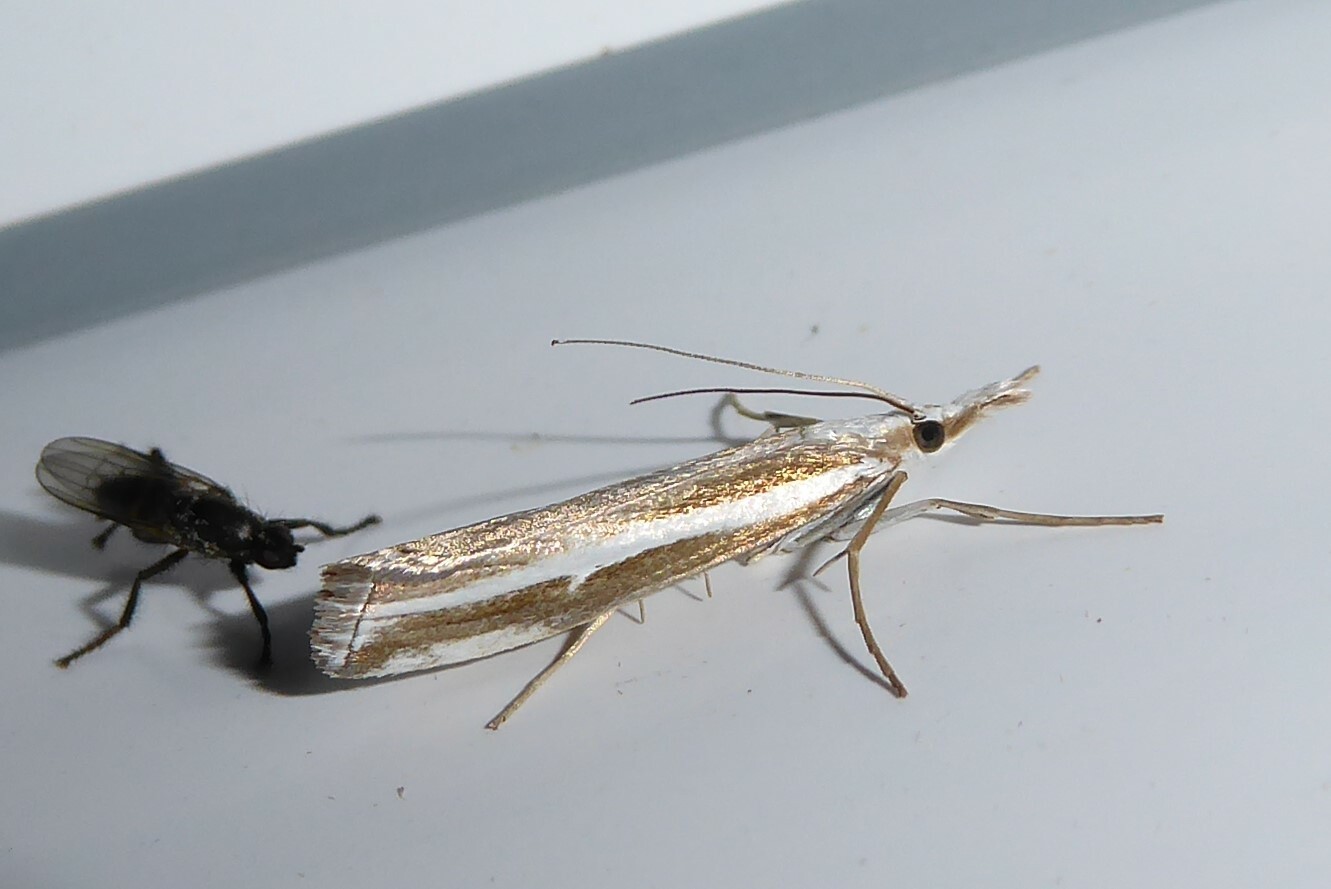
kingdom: Animalia
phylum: Arthropoda
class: Insecta
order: Lepidoptera
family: Crambidae
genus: Orocrambus
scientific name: Orocrambus vittellus
